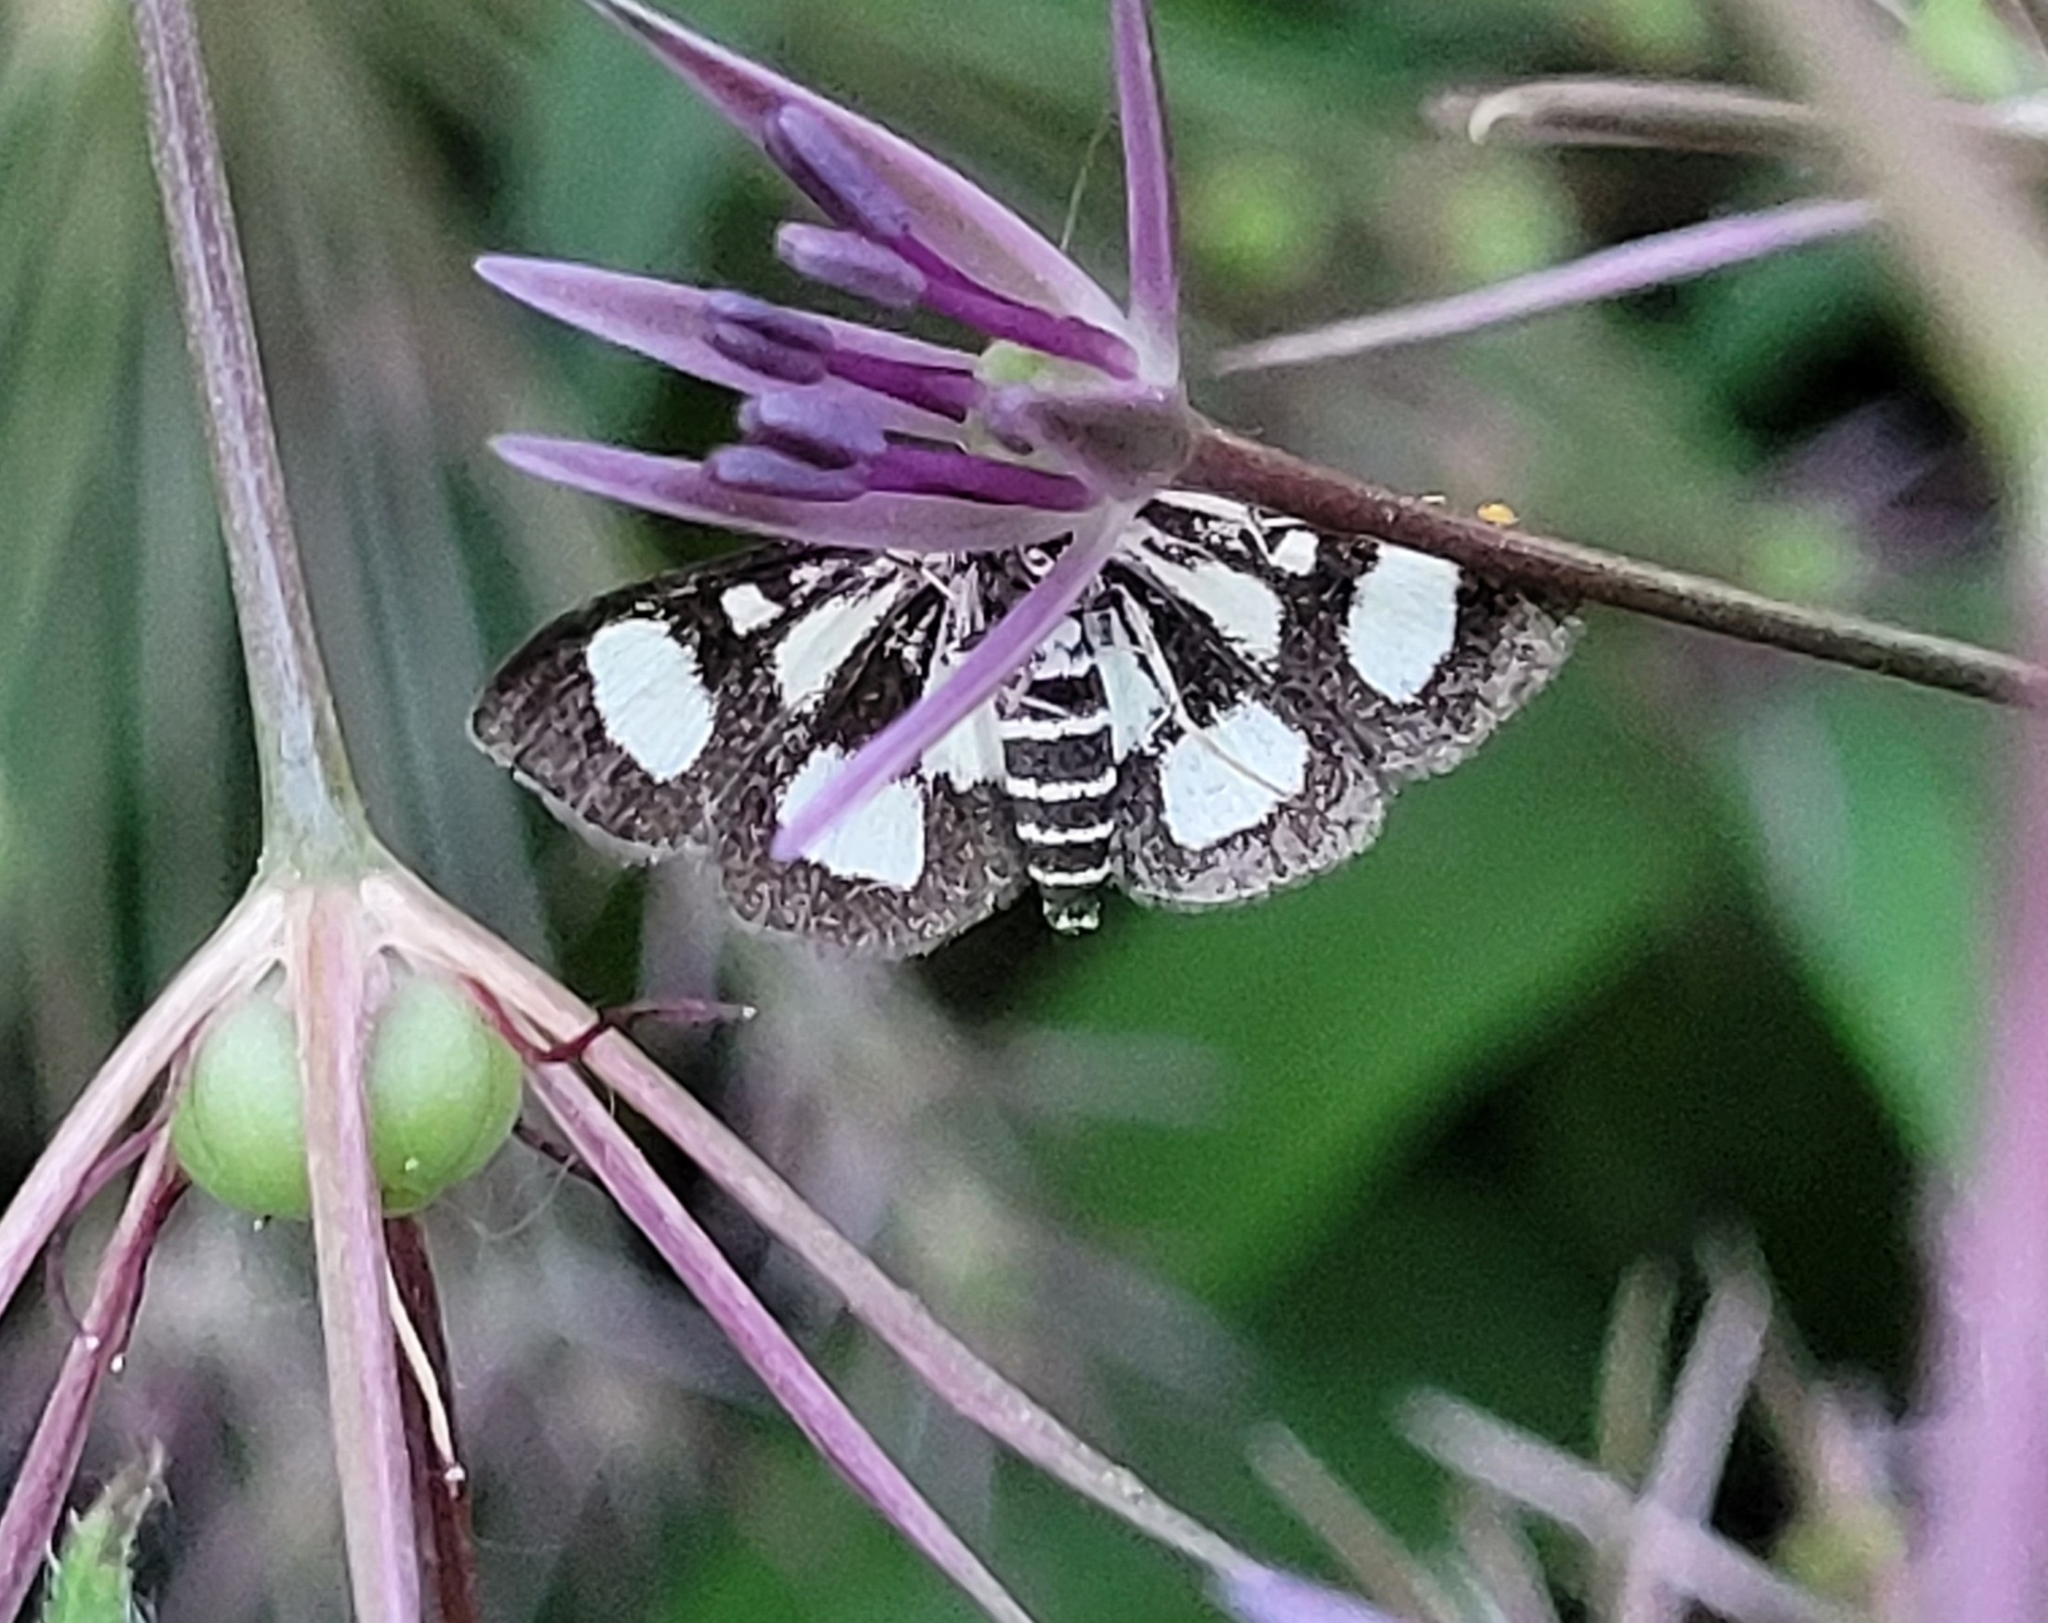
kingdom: Animalia
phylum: Arthropoda
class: Insecta
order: Lepidoptera
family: Crambidae
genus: Anania
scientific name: Anania funebris
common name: White-spotted sable moth
